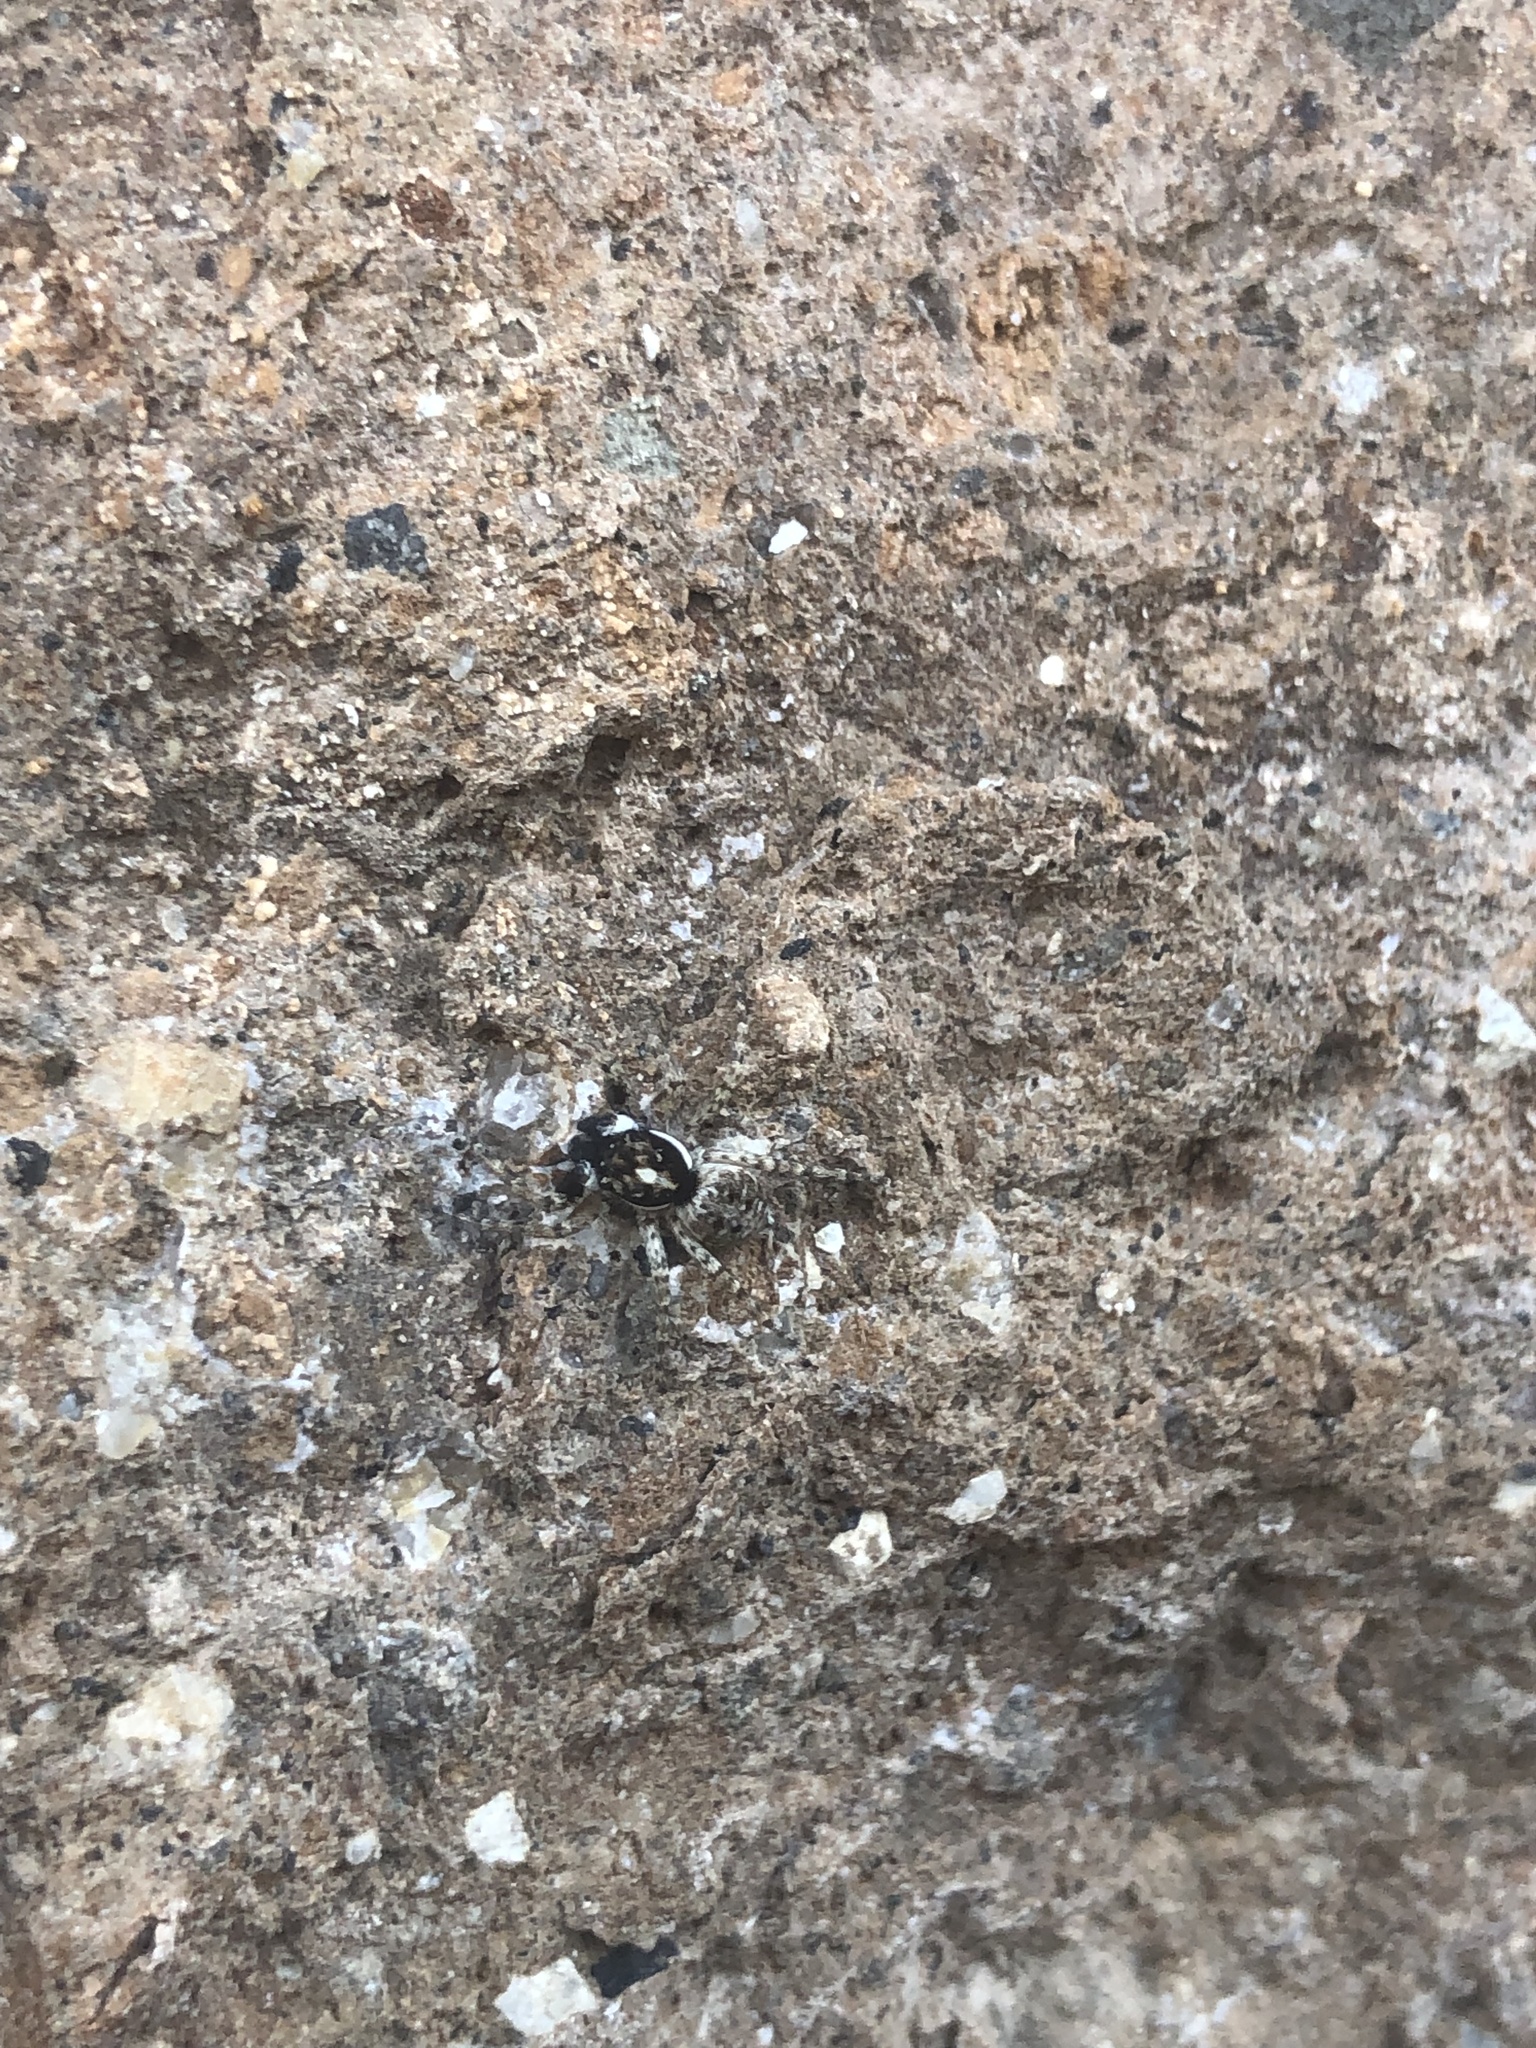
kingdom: Animalia
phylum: Arthropoda
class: Arachnida
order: Araneae
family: Salticidae
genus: Menemerus
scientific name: Menemerus semilimbatus
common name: Jumping spider
